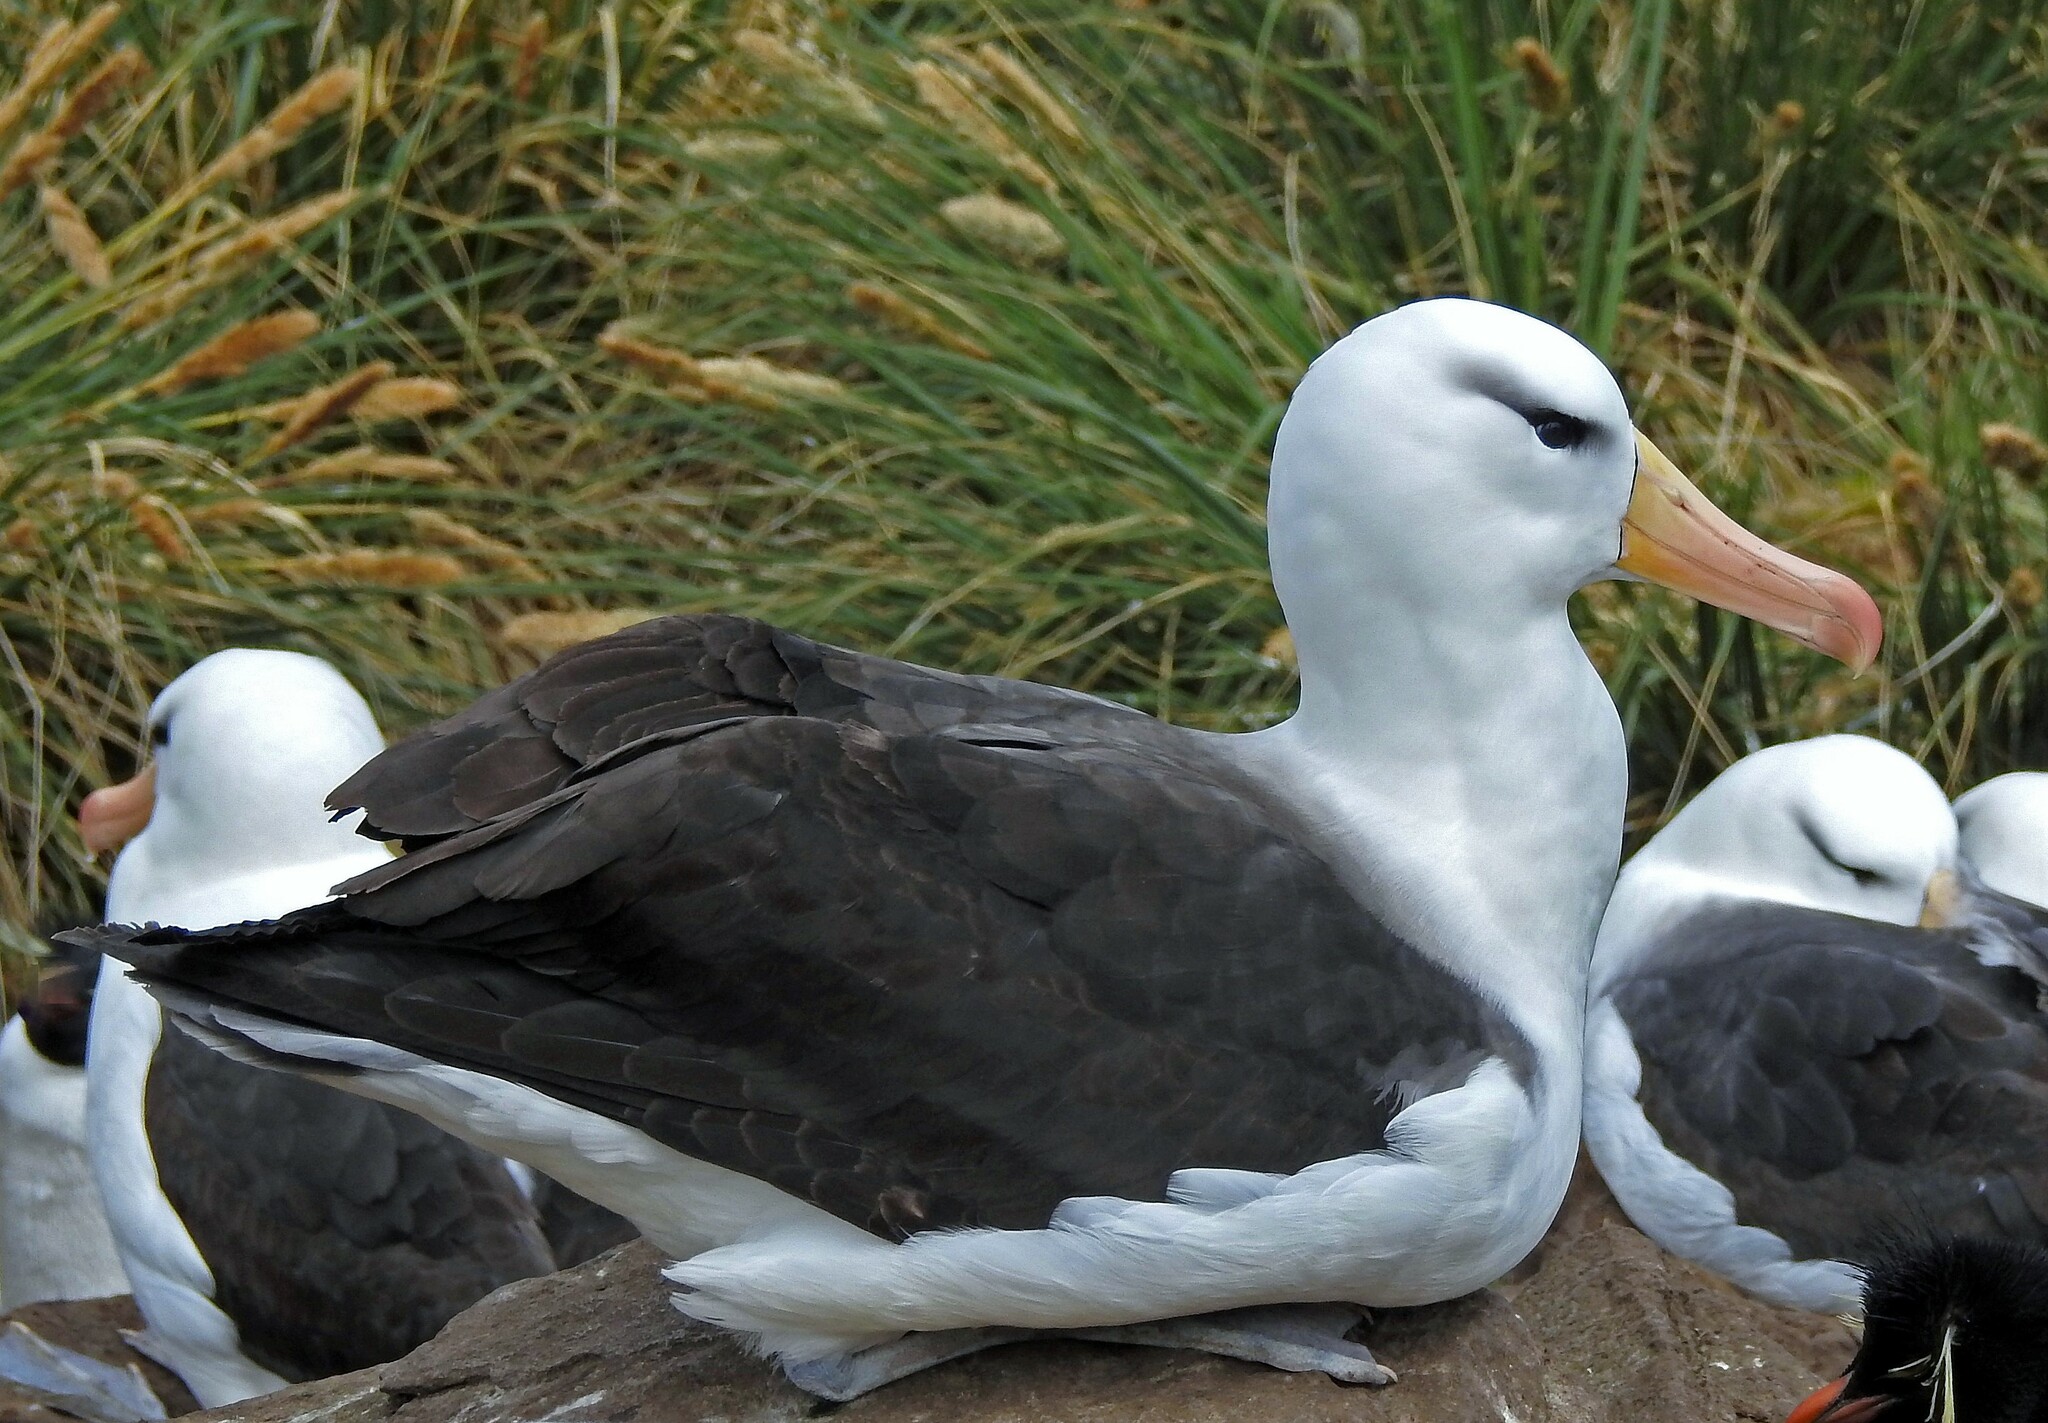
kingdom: Animalia
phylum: Chordata
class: Aves
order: Procellariiformes
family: Diomedeidae
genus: Thalassarche
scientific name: Thalassarche melanophris
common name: Black-browed albatross
